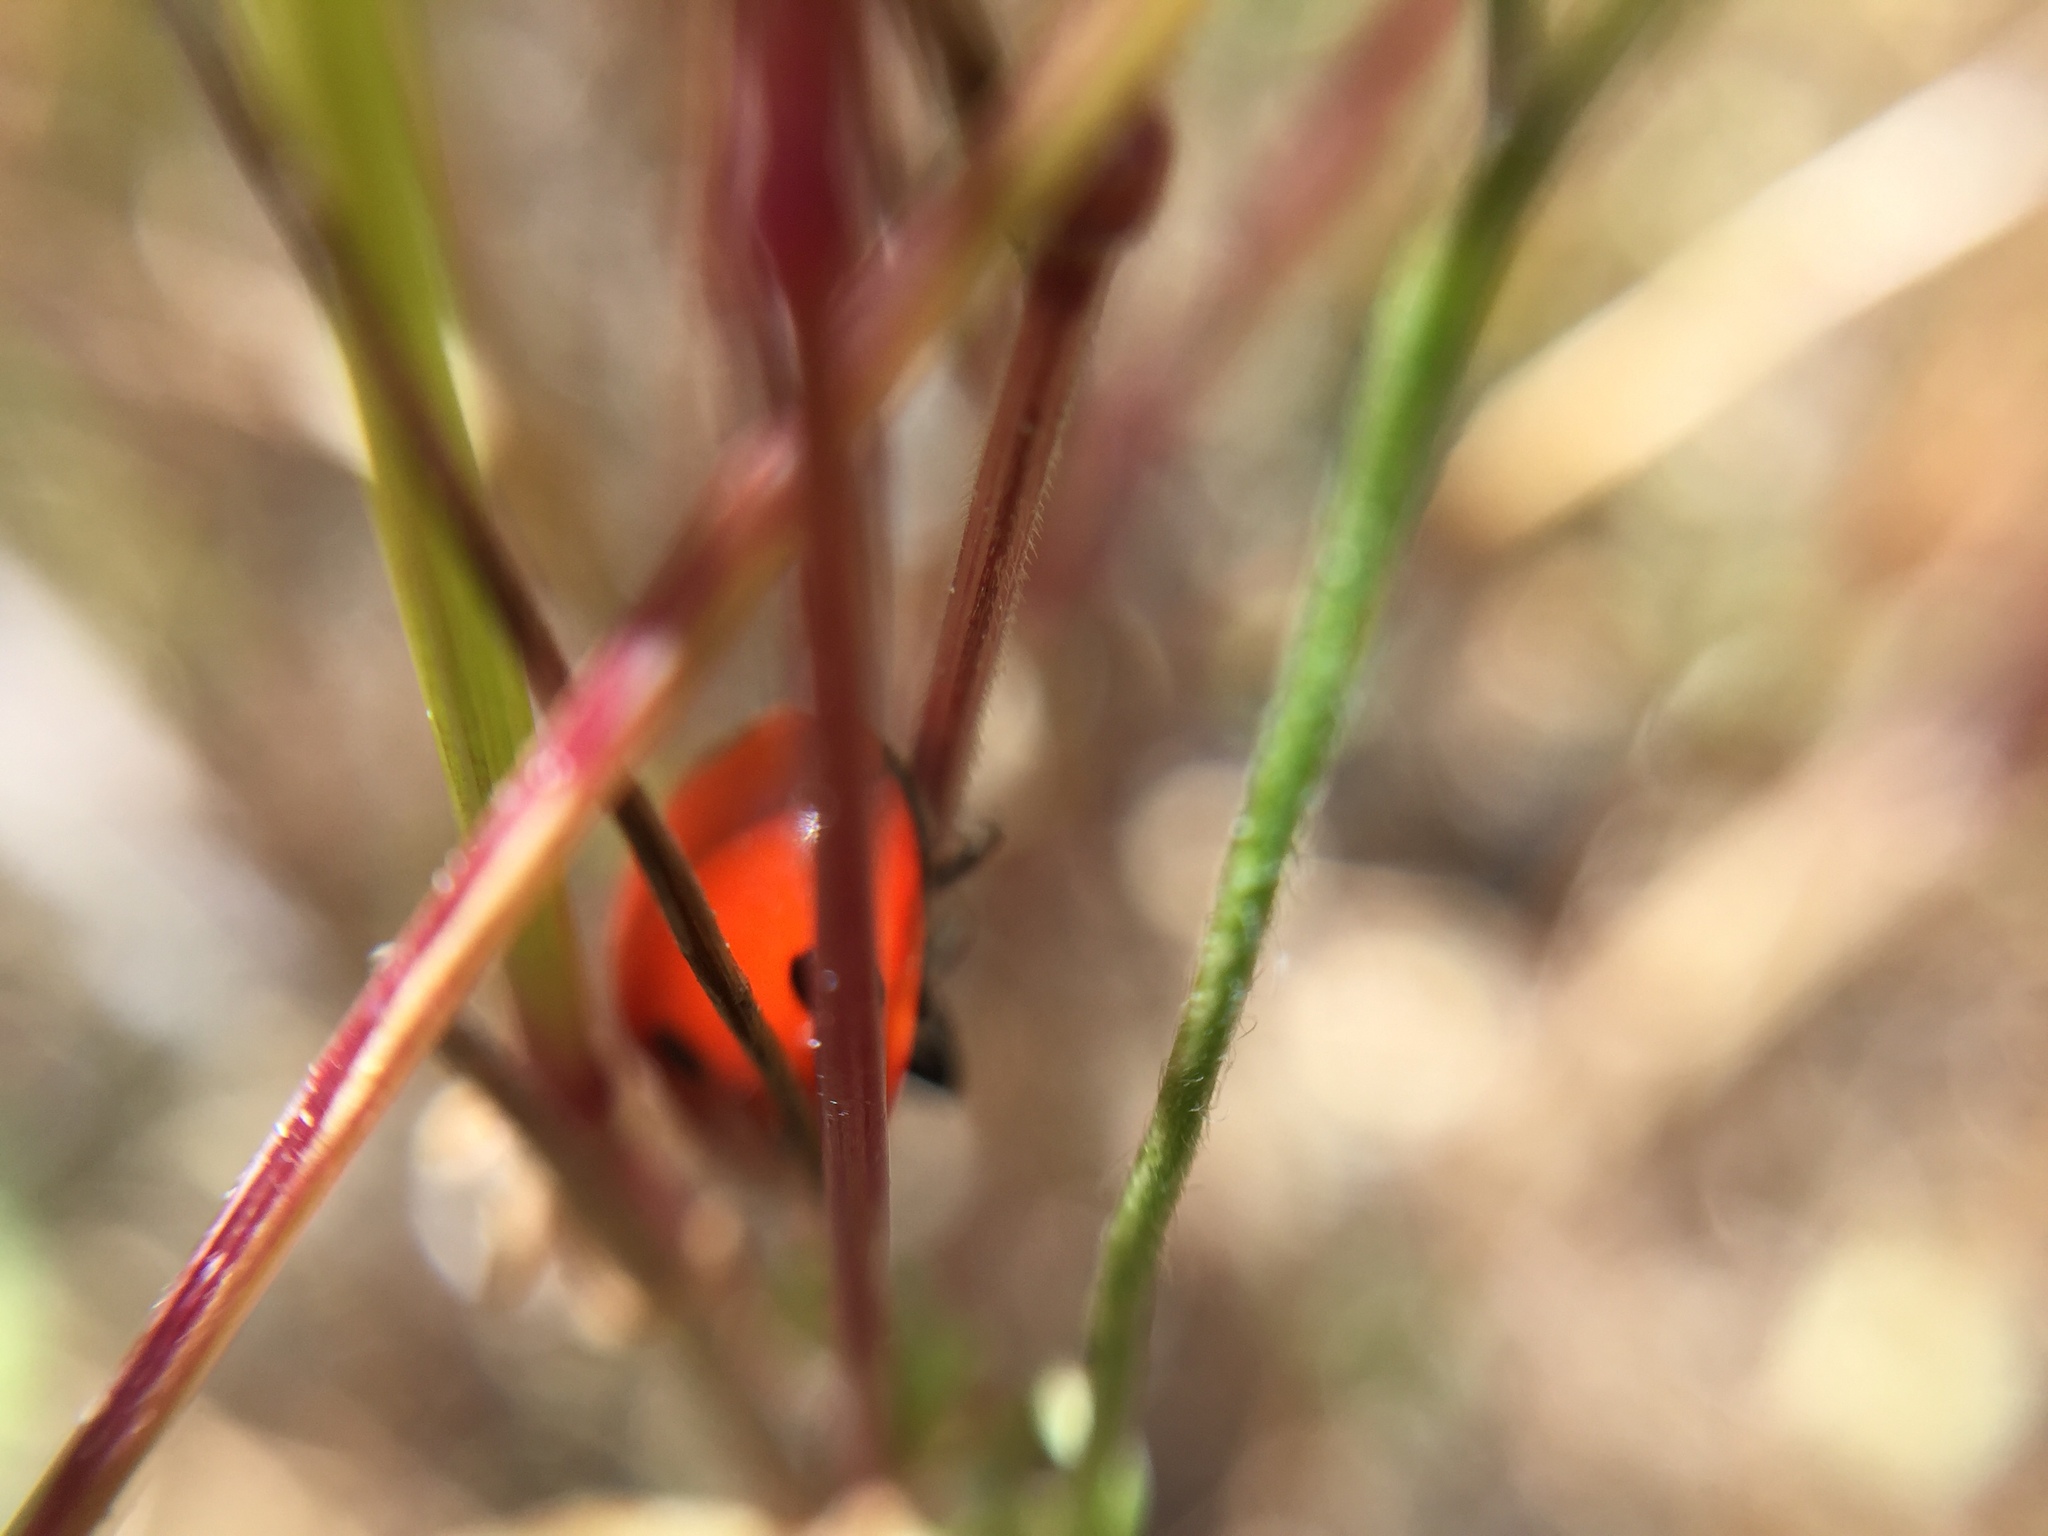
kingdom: Animalia
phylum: Arthropoda
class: Insecta
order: Coleoptera
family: Coccinellidae
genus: Coccinella
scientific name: Coccinella septempunctata
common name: Sevenspotted lady beetle
